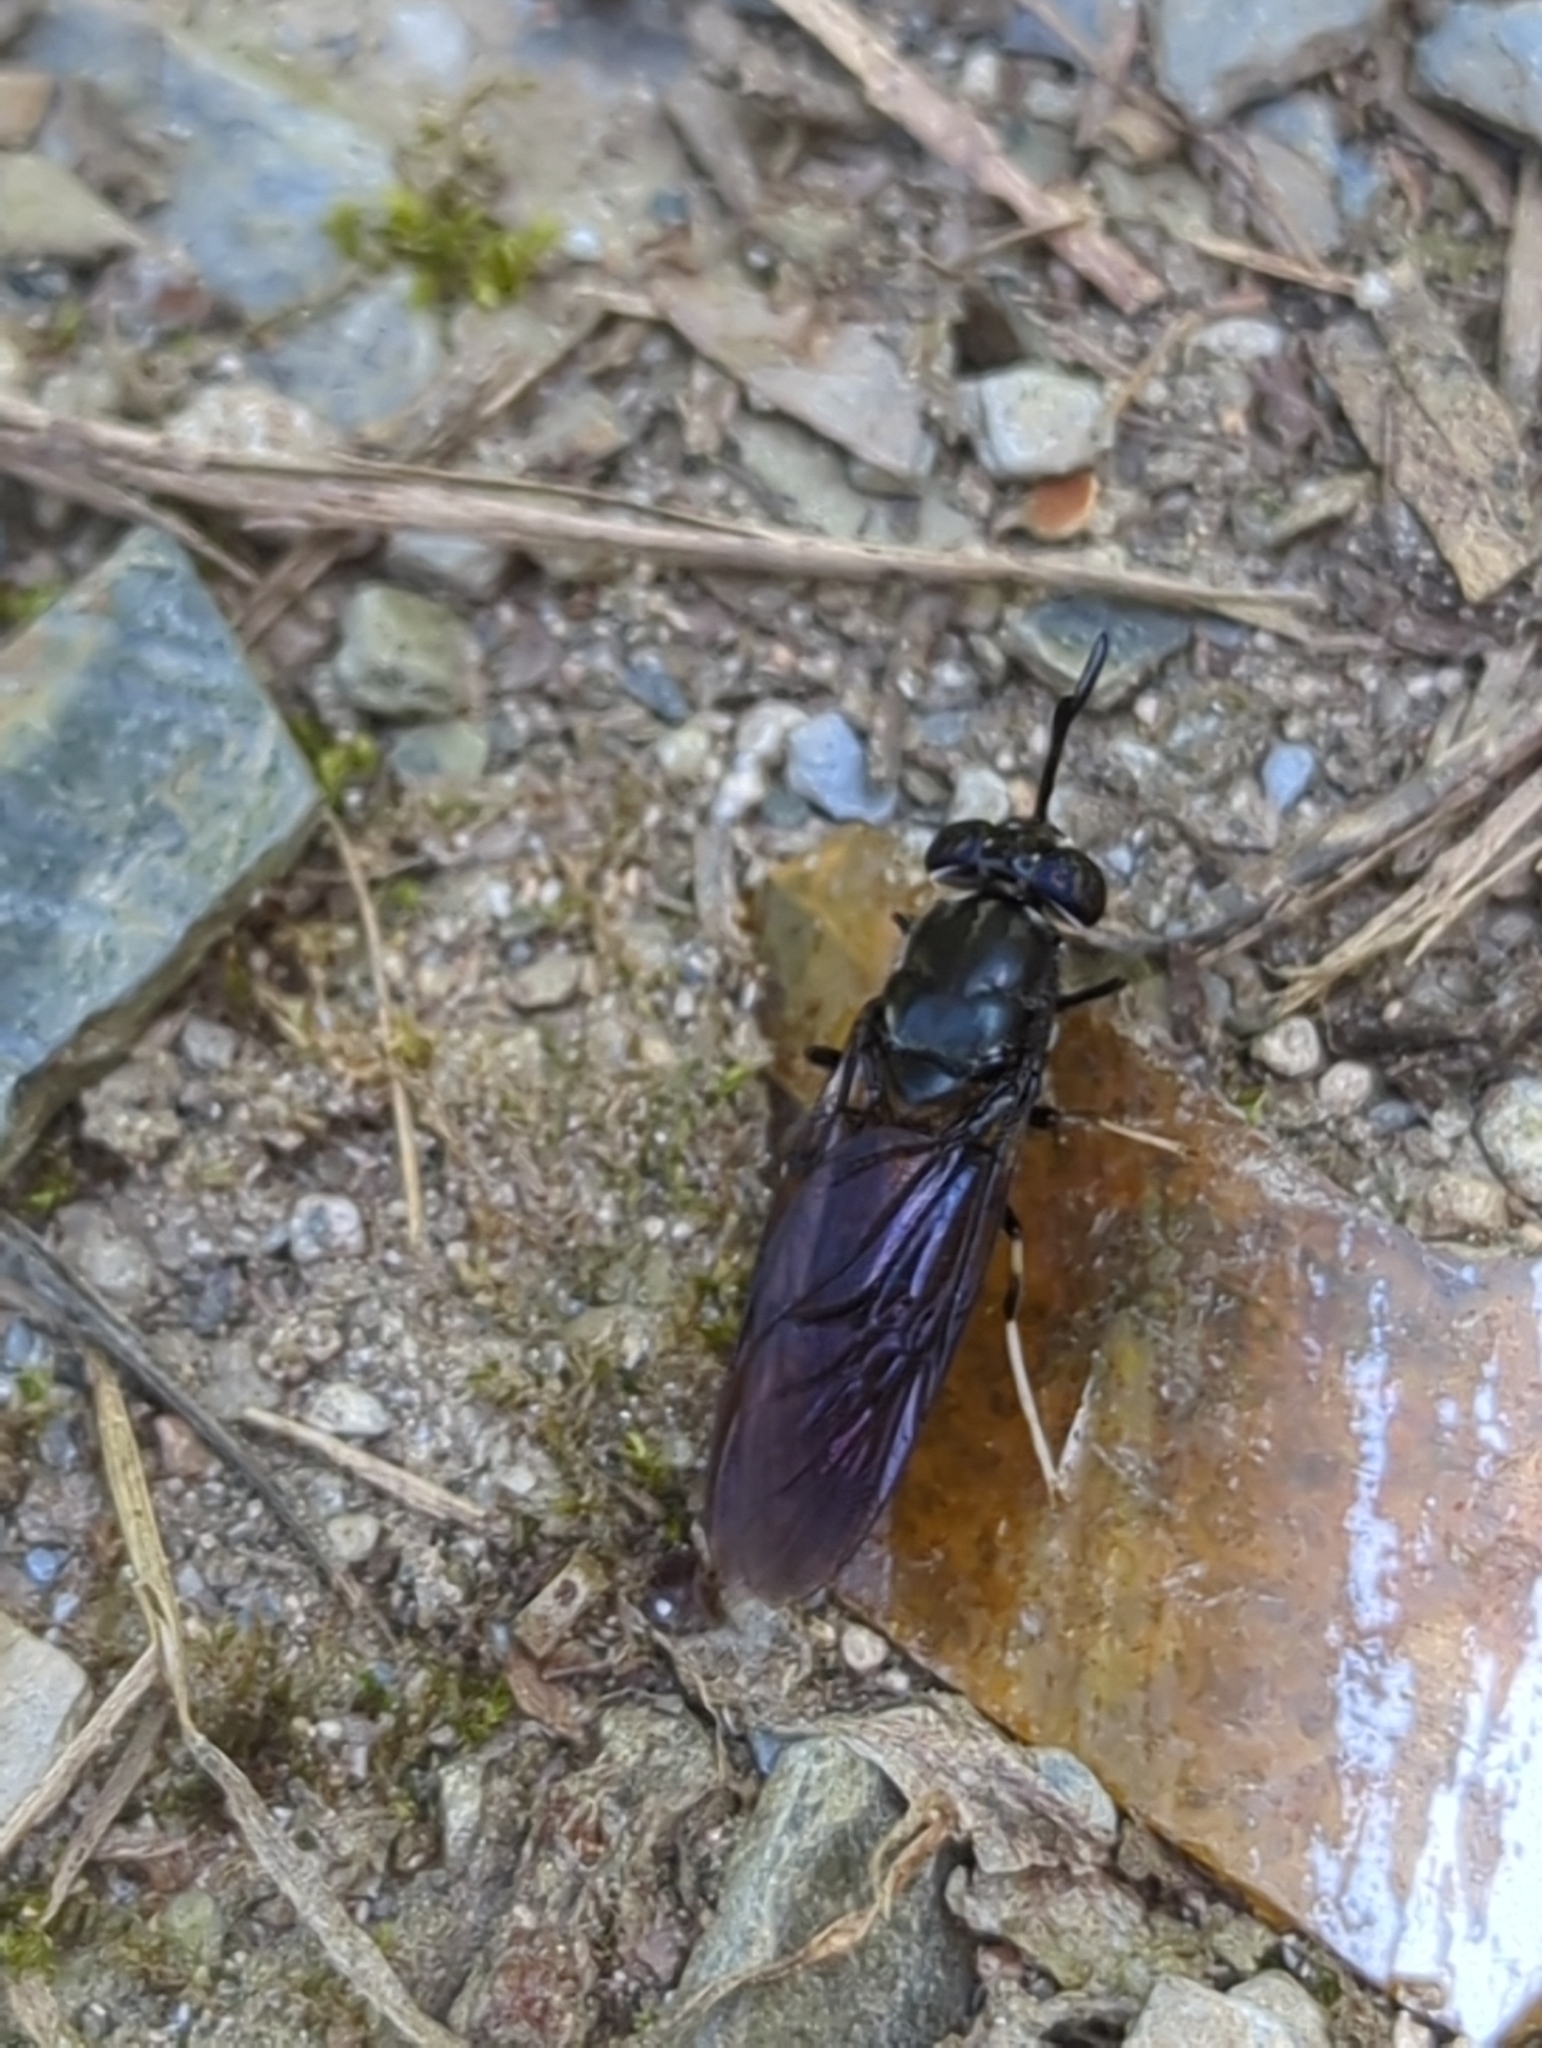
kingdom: Animalia
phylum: Arthropoda
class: Insecta
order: Diptera
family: Stratiomyidae
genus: Hermetia
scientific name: Hermetia illucens
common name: Black soldier fly
